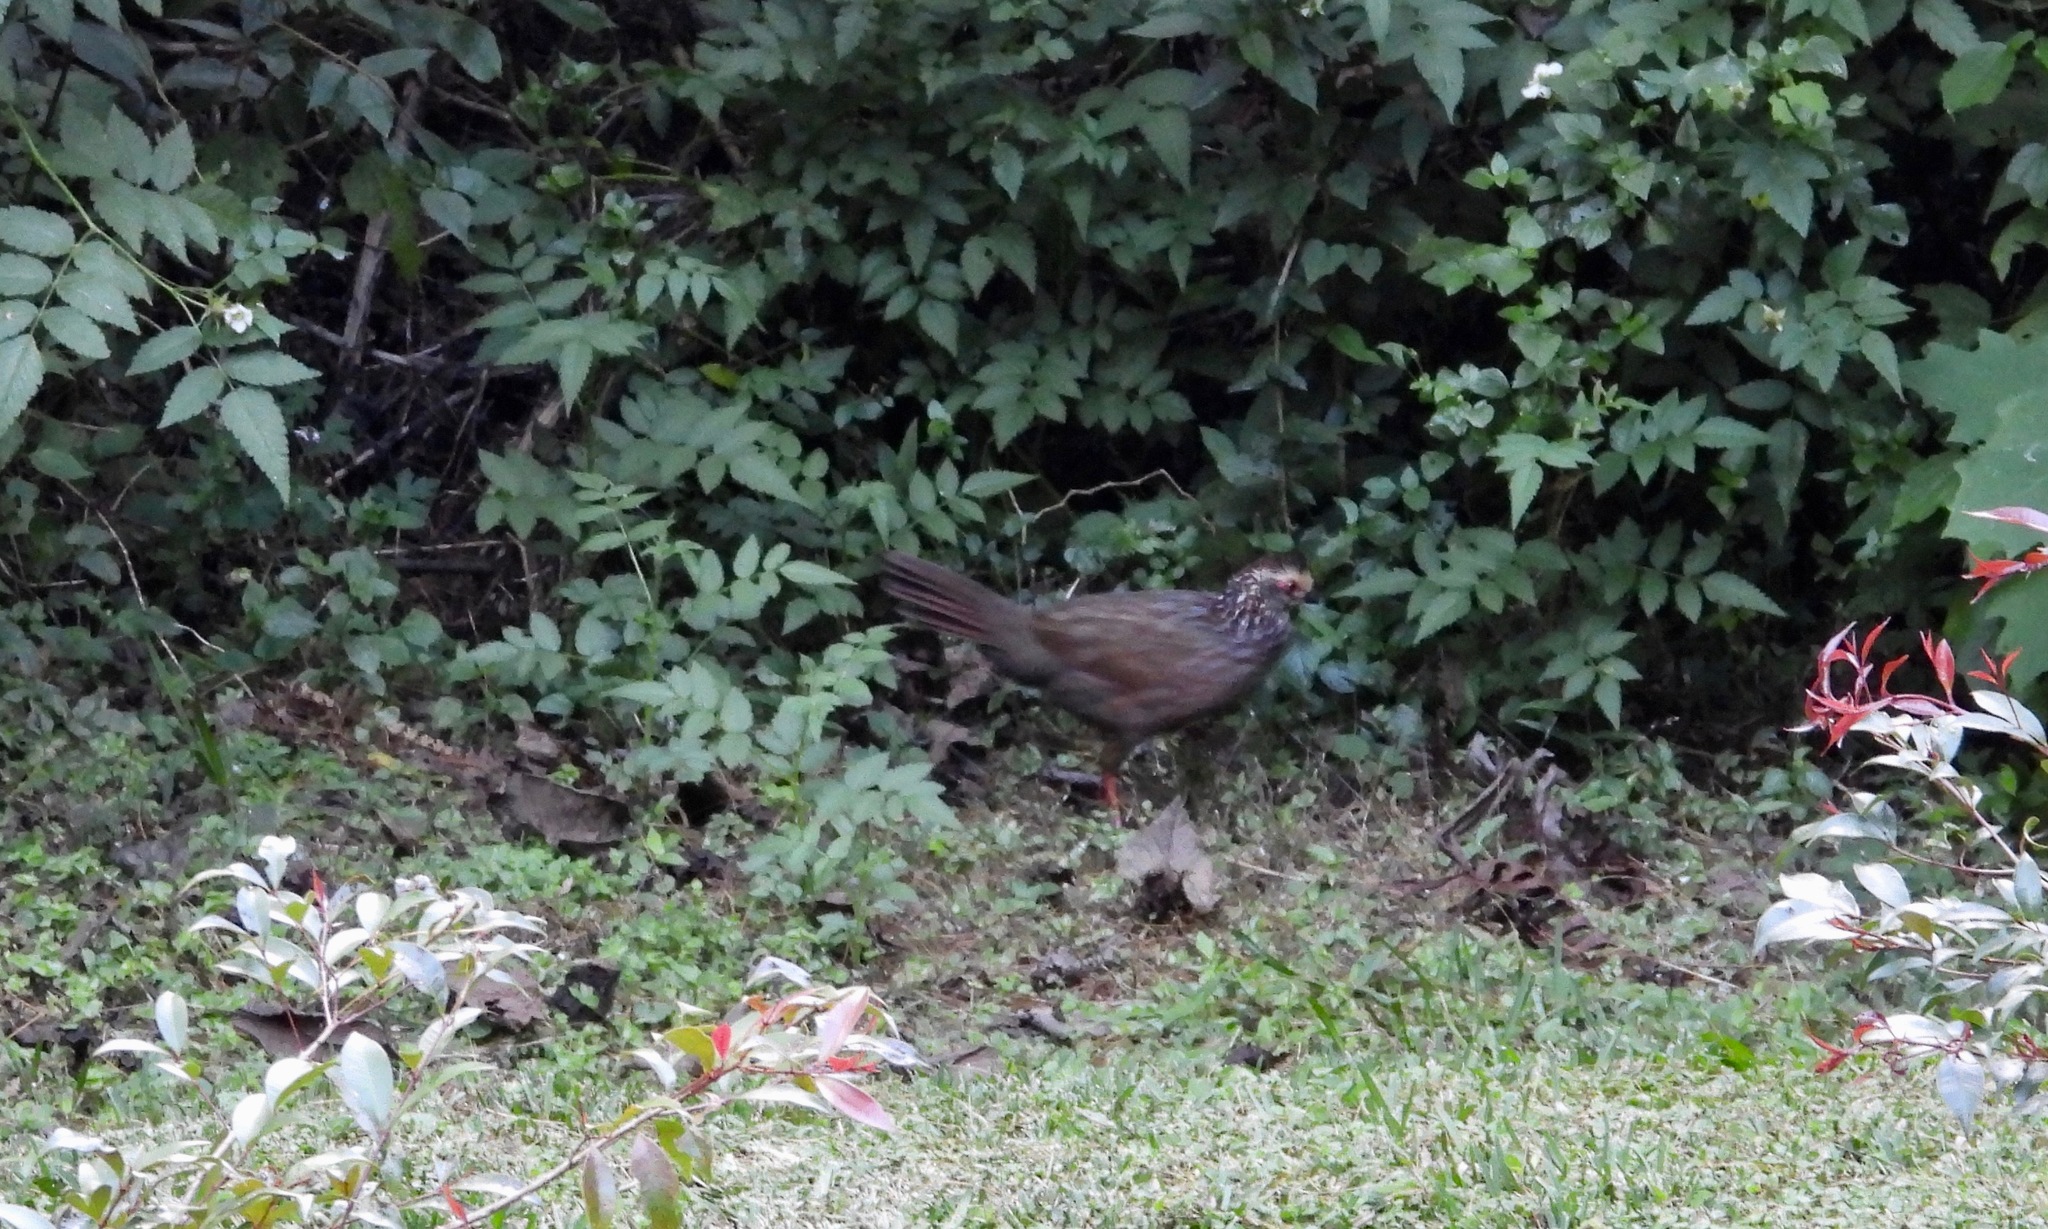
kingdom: Animalia
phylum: Chordata
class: Aves
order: Galliformes
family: Odontophoridae
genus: Dendrortyx
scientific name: Dendrortyx leucophrys
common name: Buffy-crowned wood-partridge
